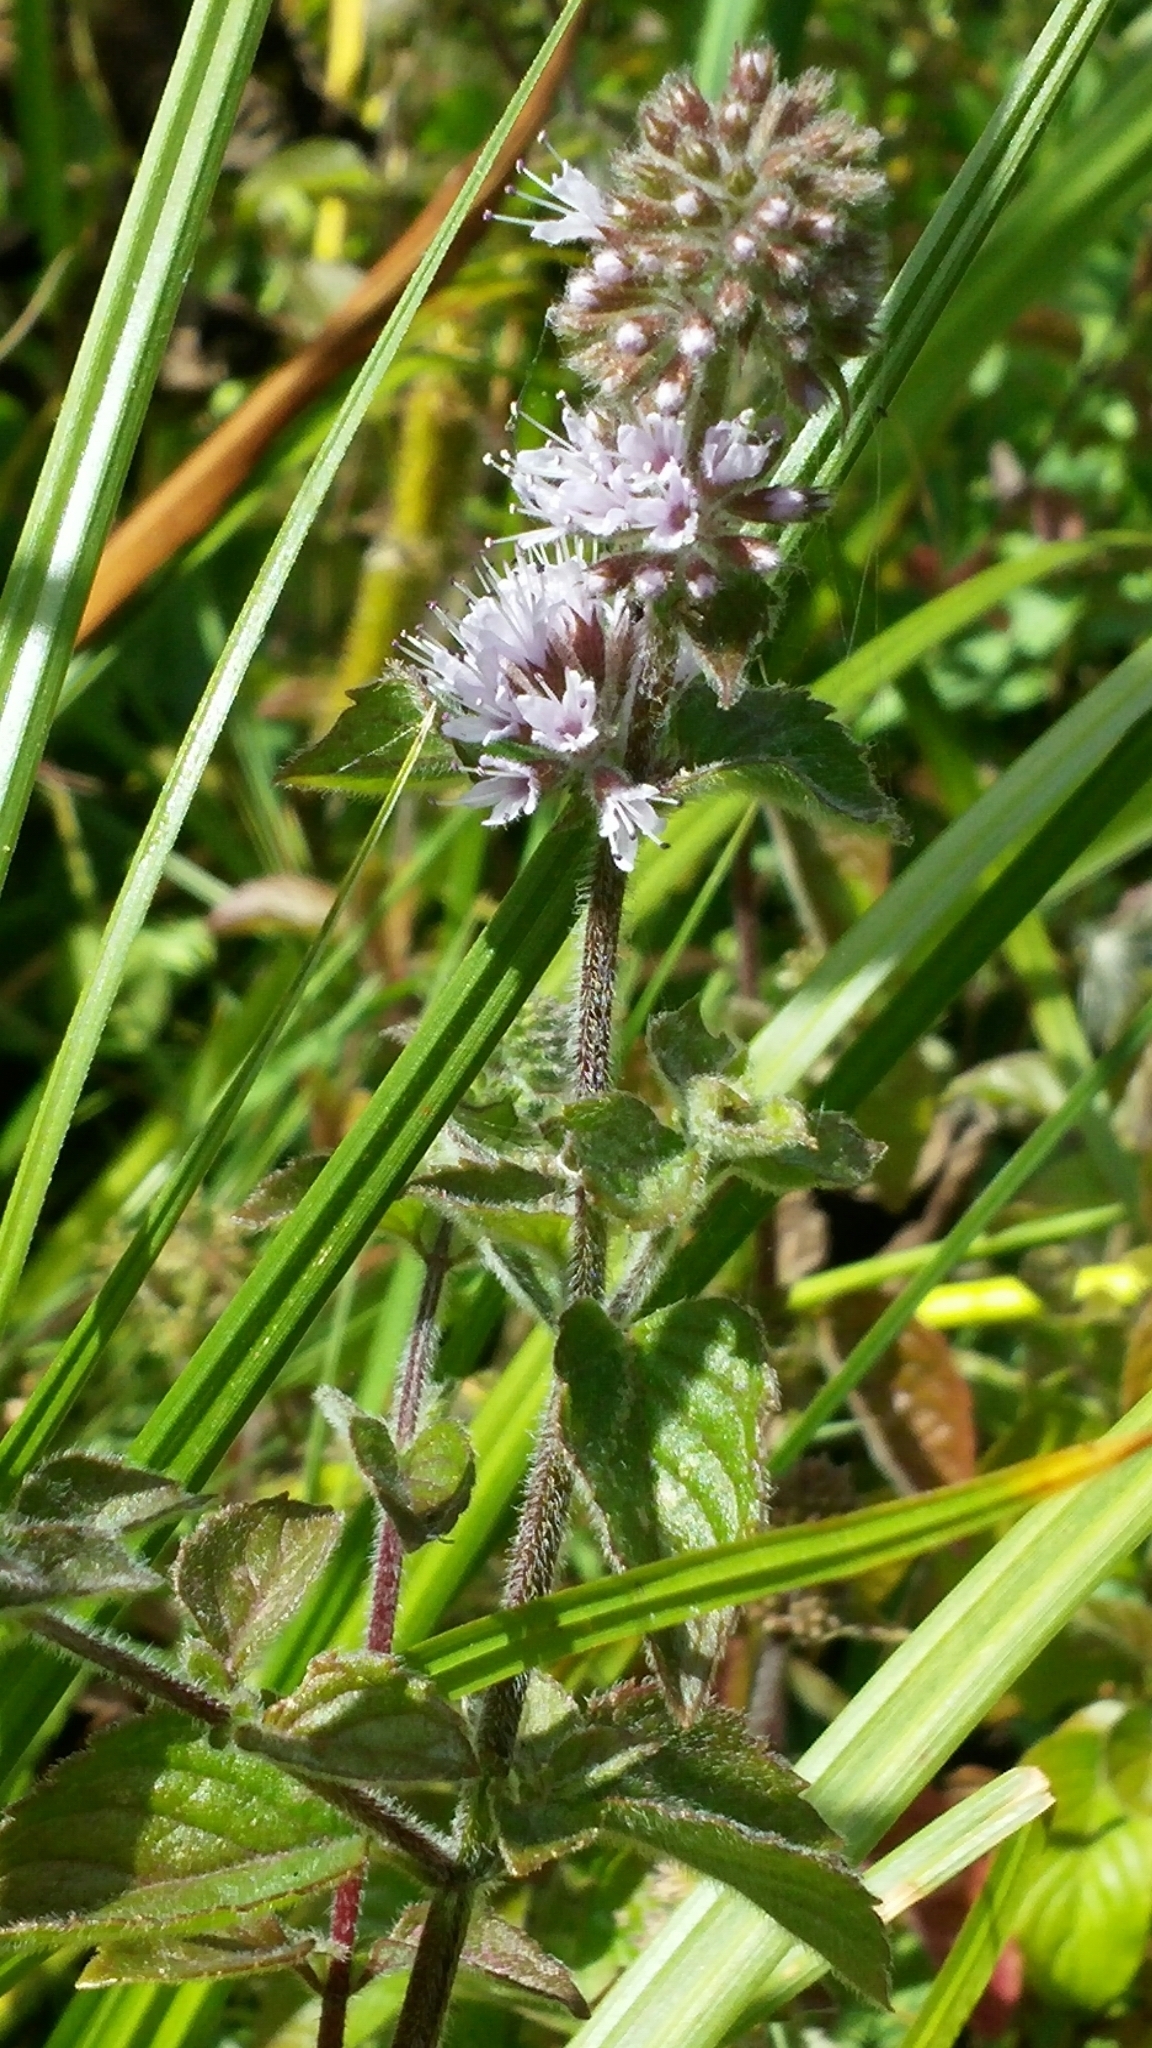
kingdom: Plantae
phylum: Tracheophyta
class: Magnoliopsida
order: Lamiales
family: Lamiaceae
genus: Mentha
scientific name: Mentha aquatica
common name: Water mint
